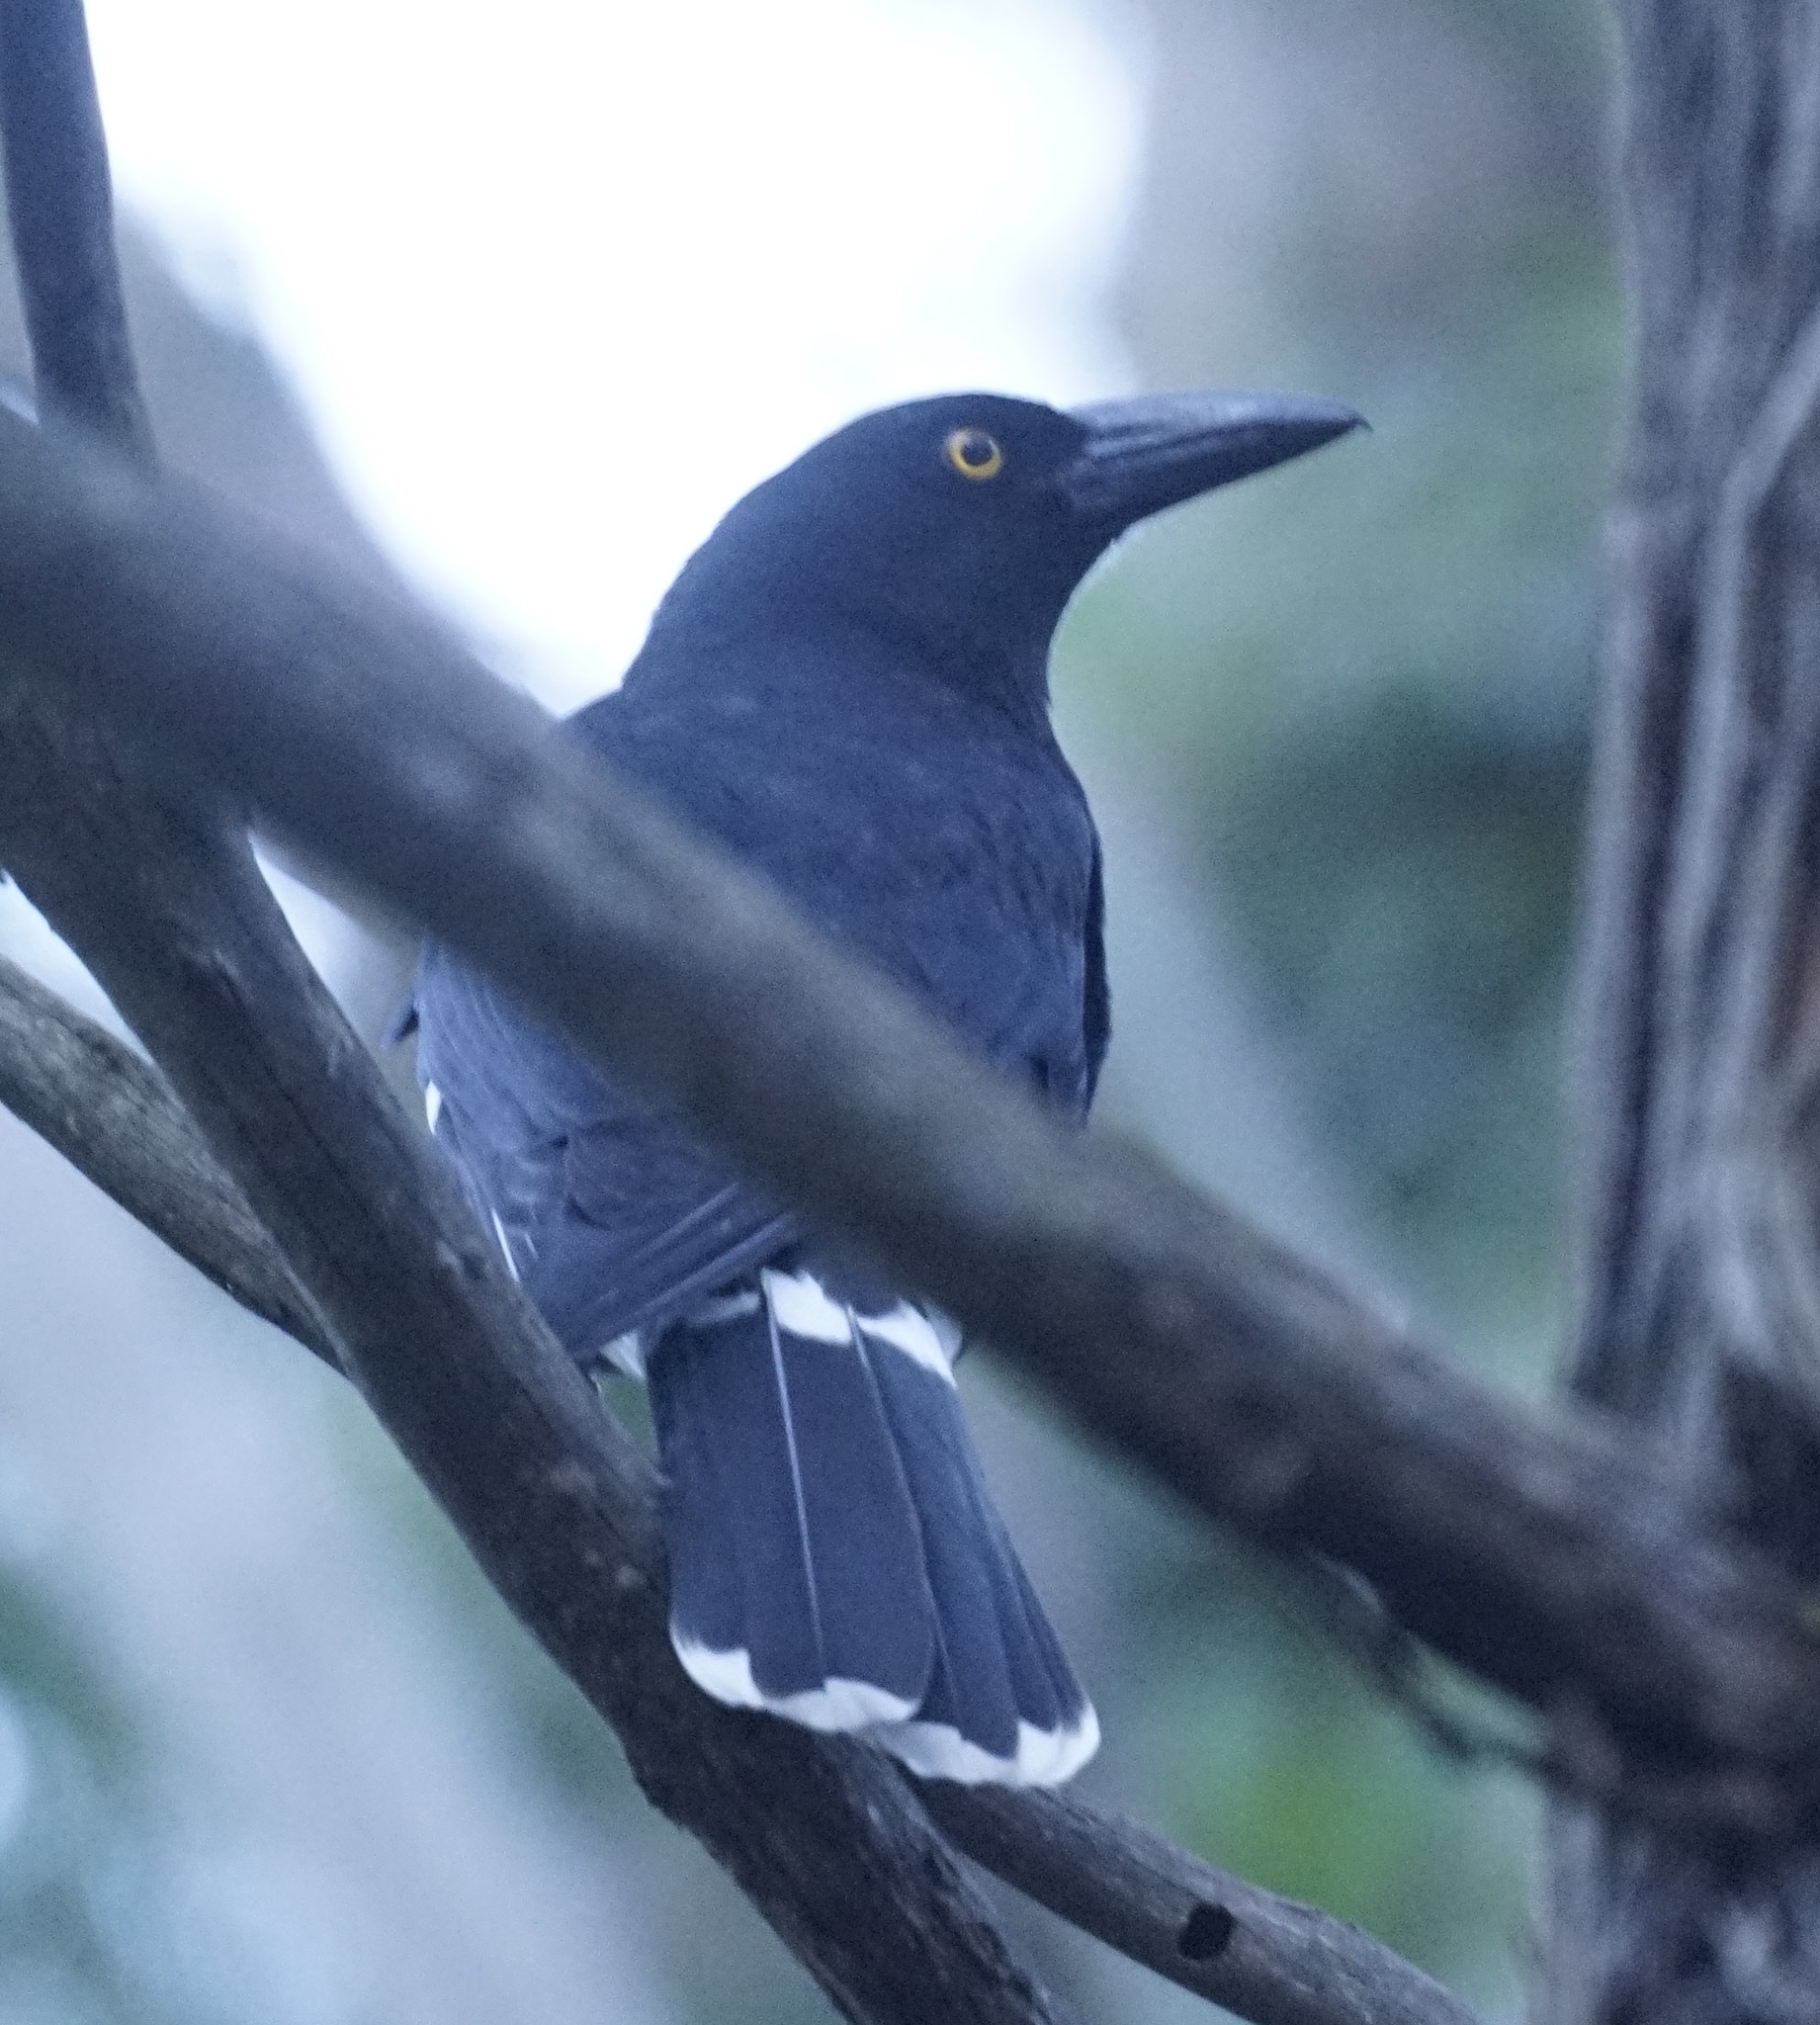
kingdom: Animalia
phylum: Chordata
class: Aves
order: Passeriformes
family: Cracticidae
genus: Strepera
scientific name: Strepera graculina
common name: Pied currawong
